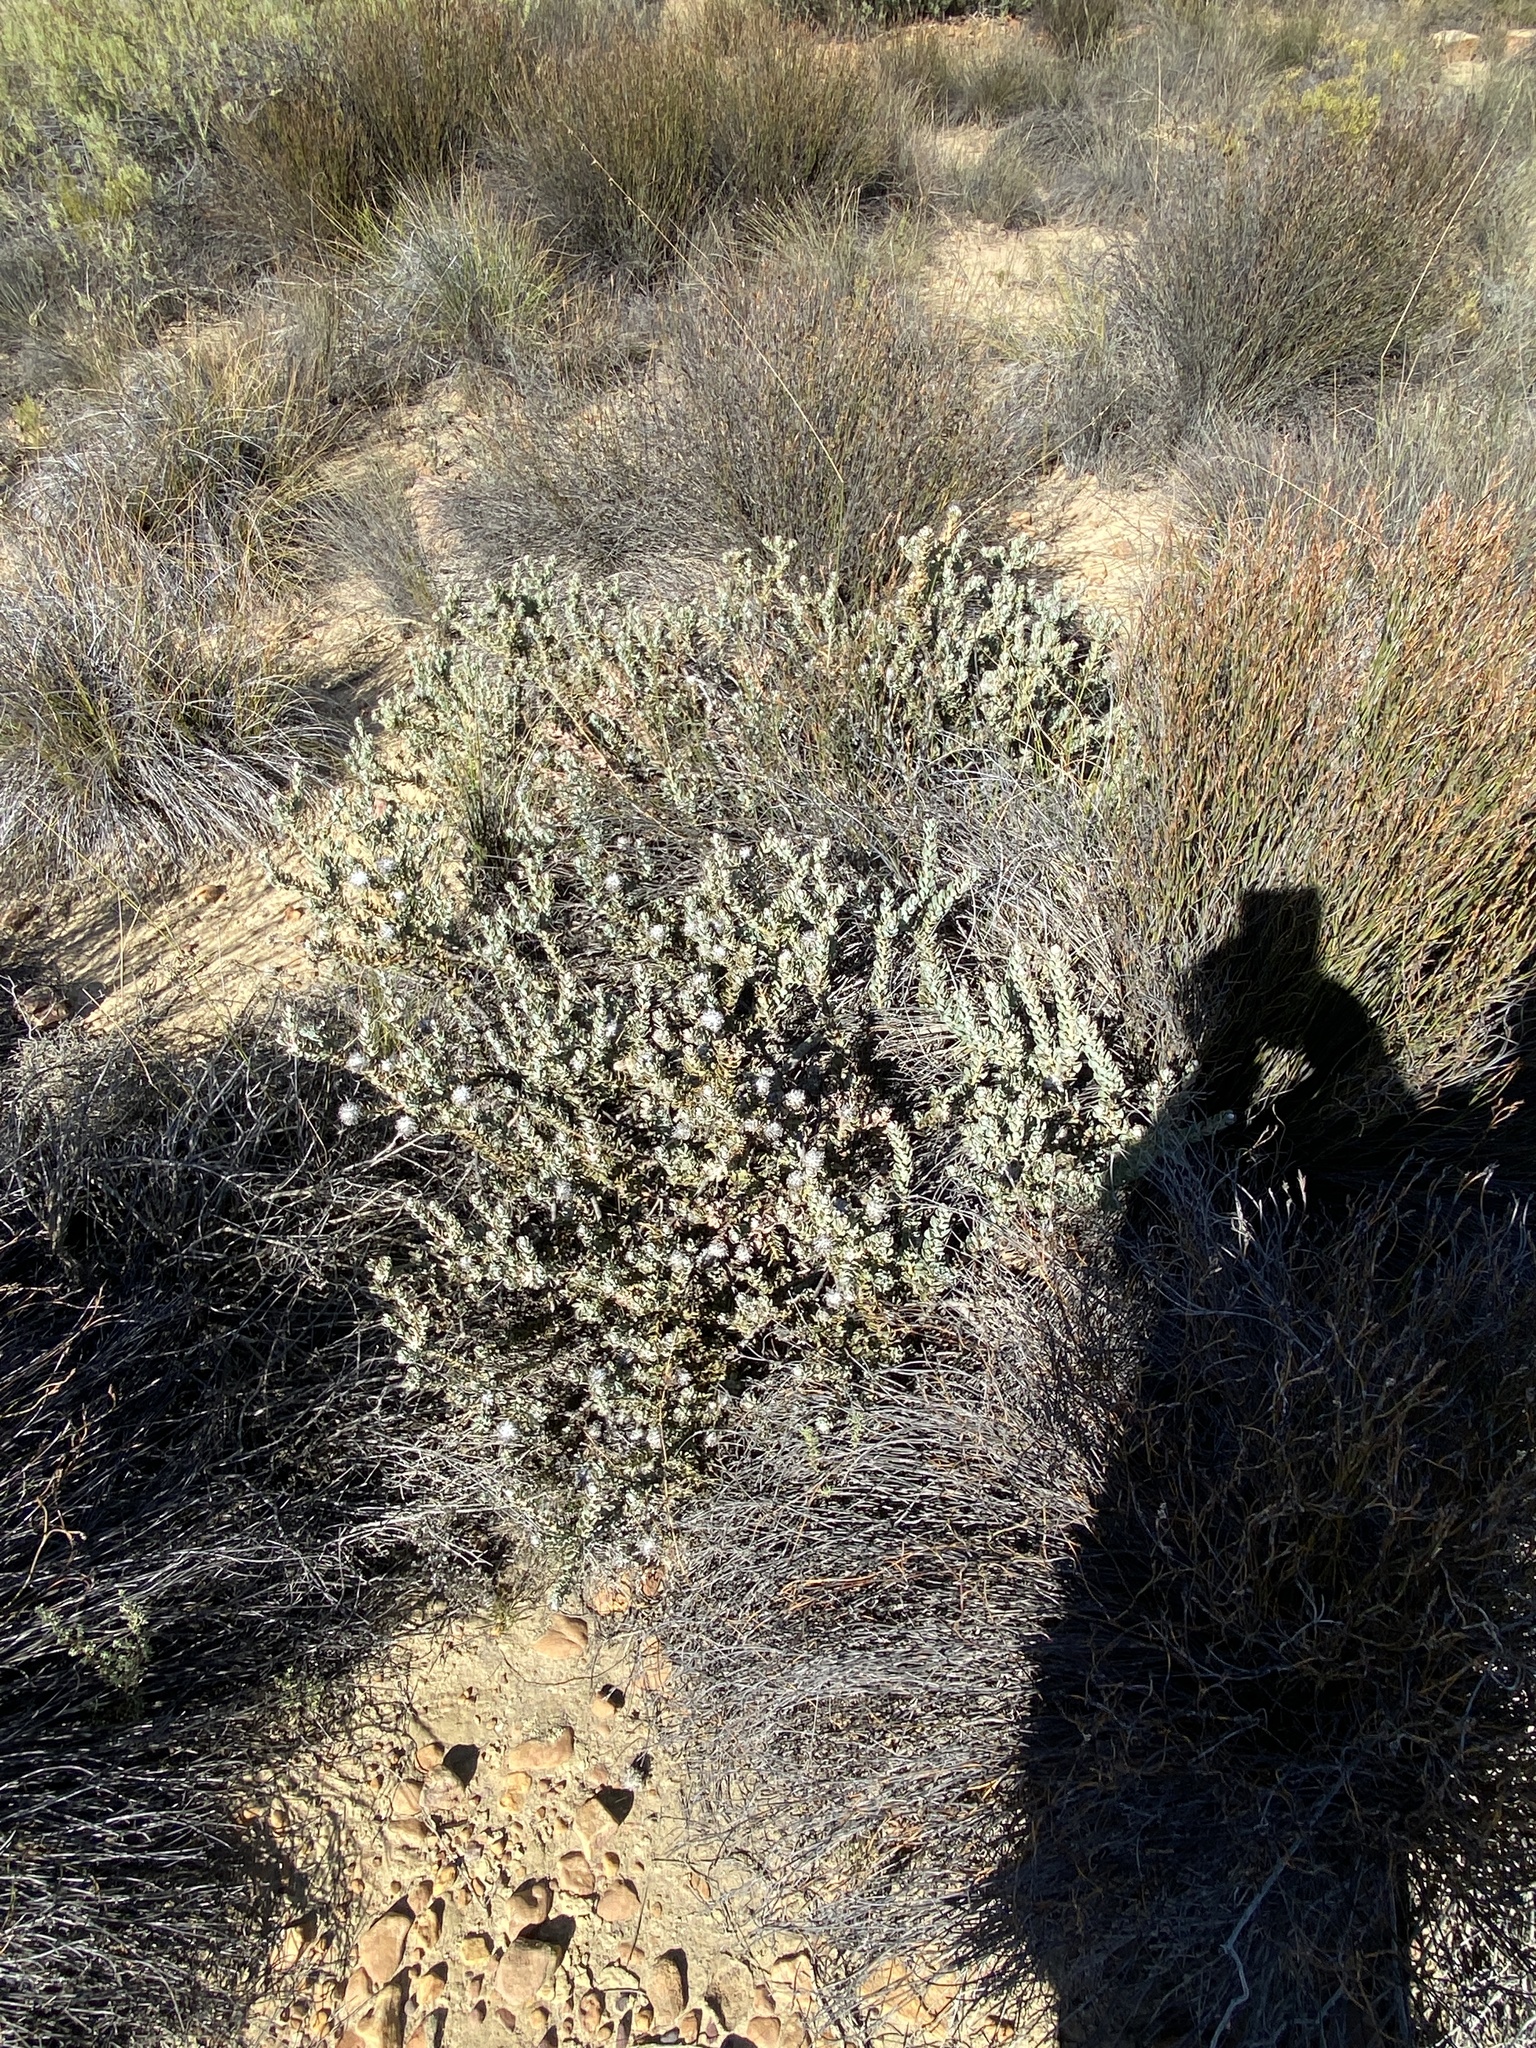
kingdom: Plantae
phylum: Tracheophyta
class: Magnoliopsida
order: Proteales
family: Proteaceae
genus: Vexatorella
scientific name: Vexatorella amoena
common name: Swartruggens vexator
